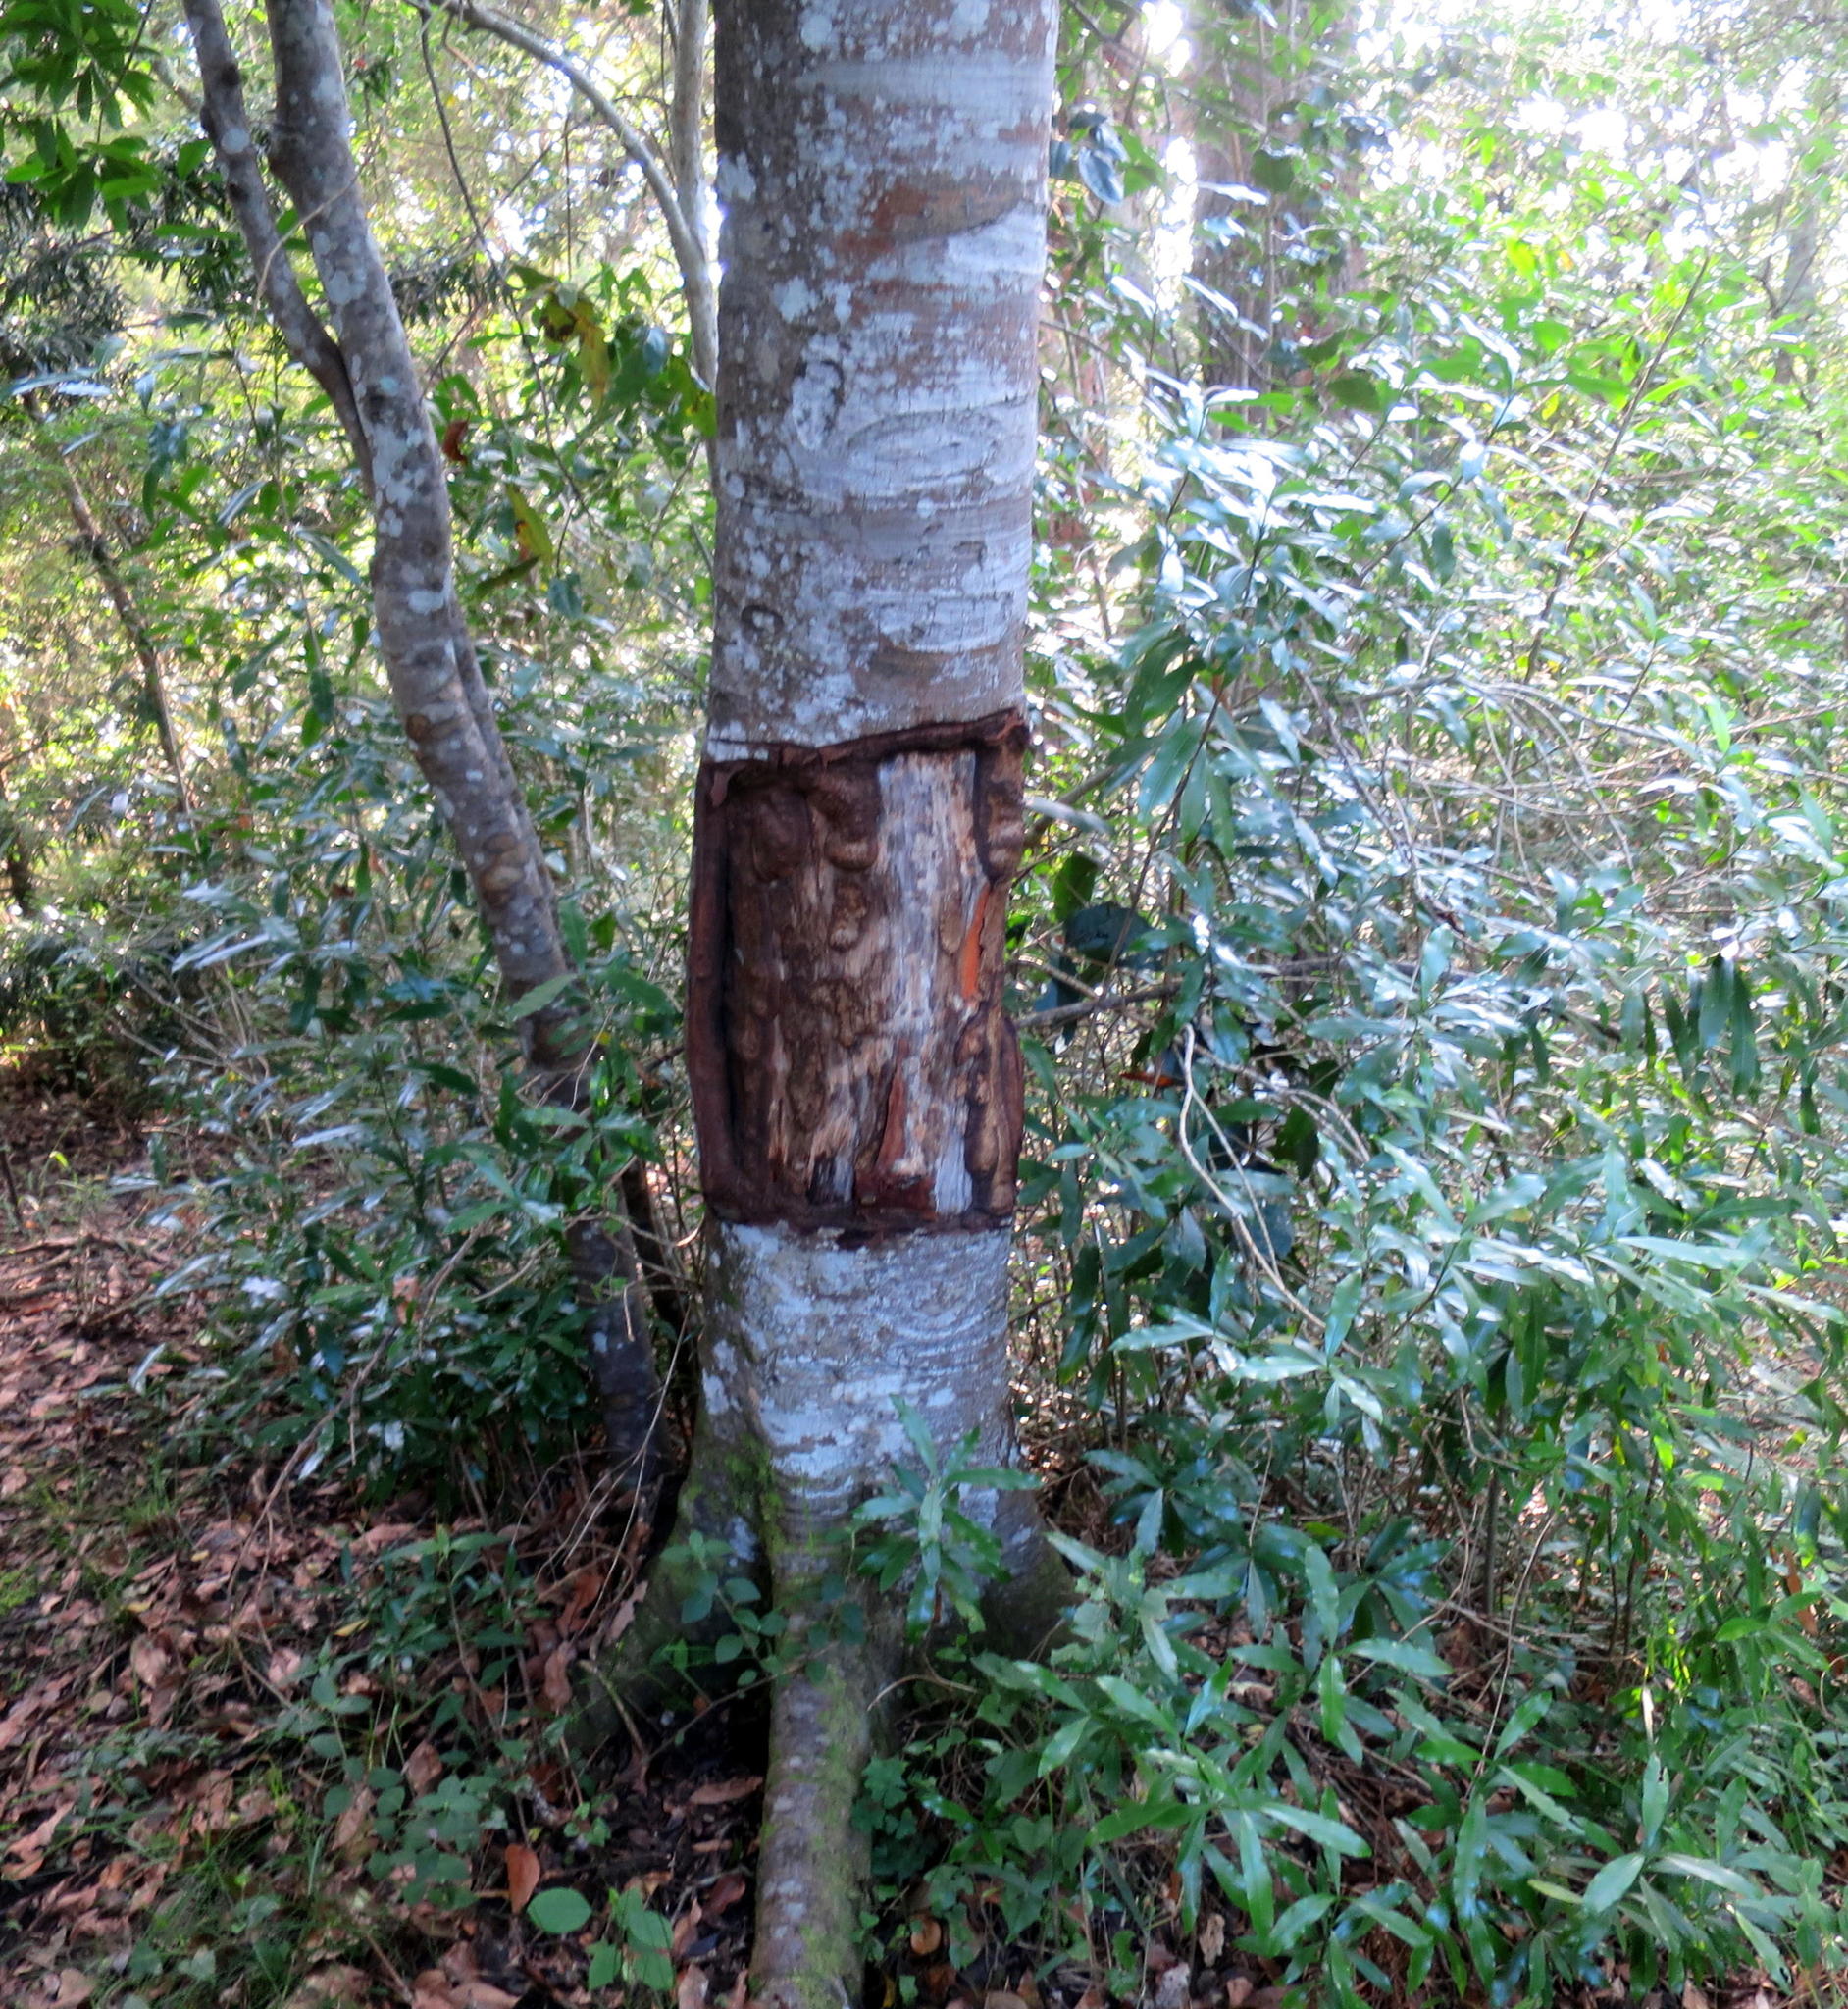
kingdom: Plantae
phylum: Tracheophyta
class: Magnoliopsida
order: Laurales
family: Lauraceae
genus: Ocotea
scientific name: Ocotea bullata
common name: Black stinkwood
